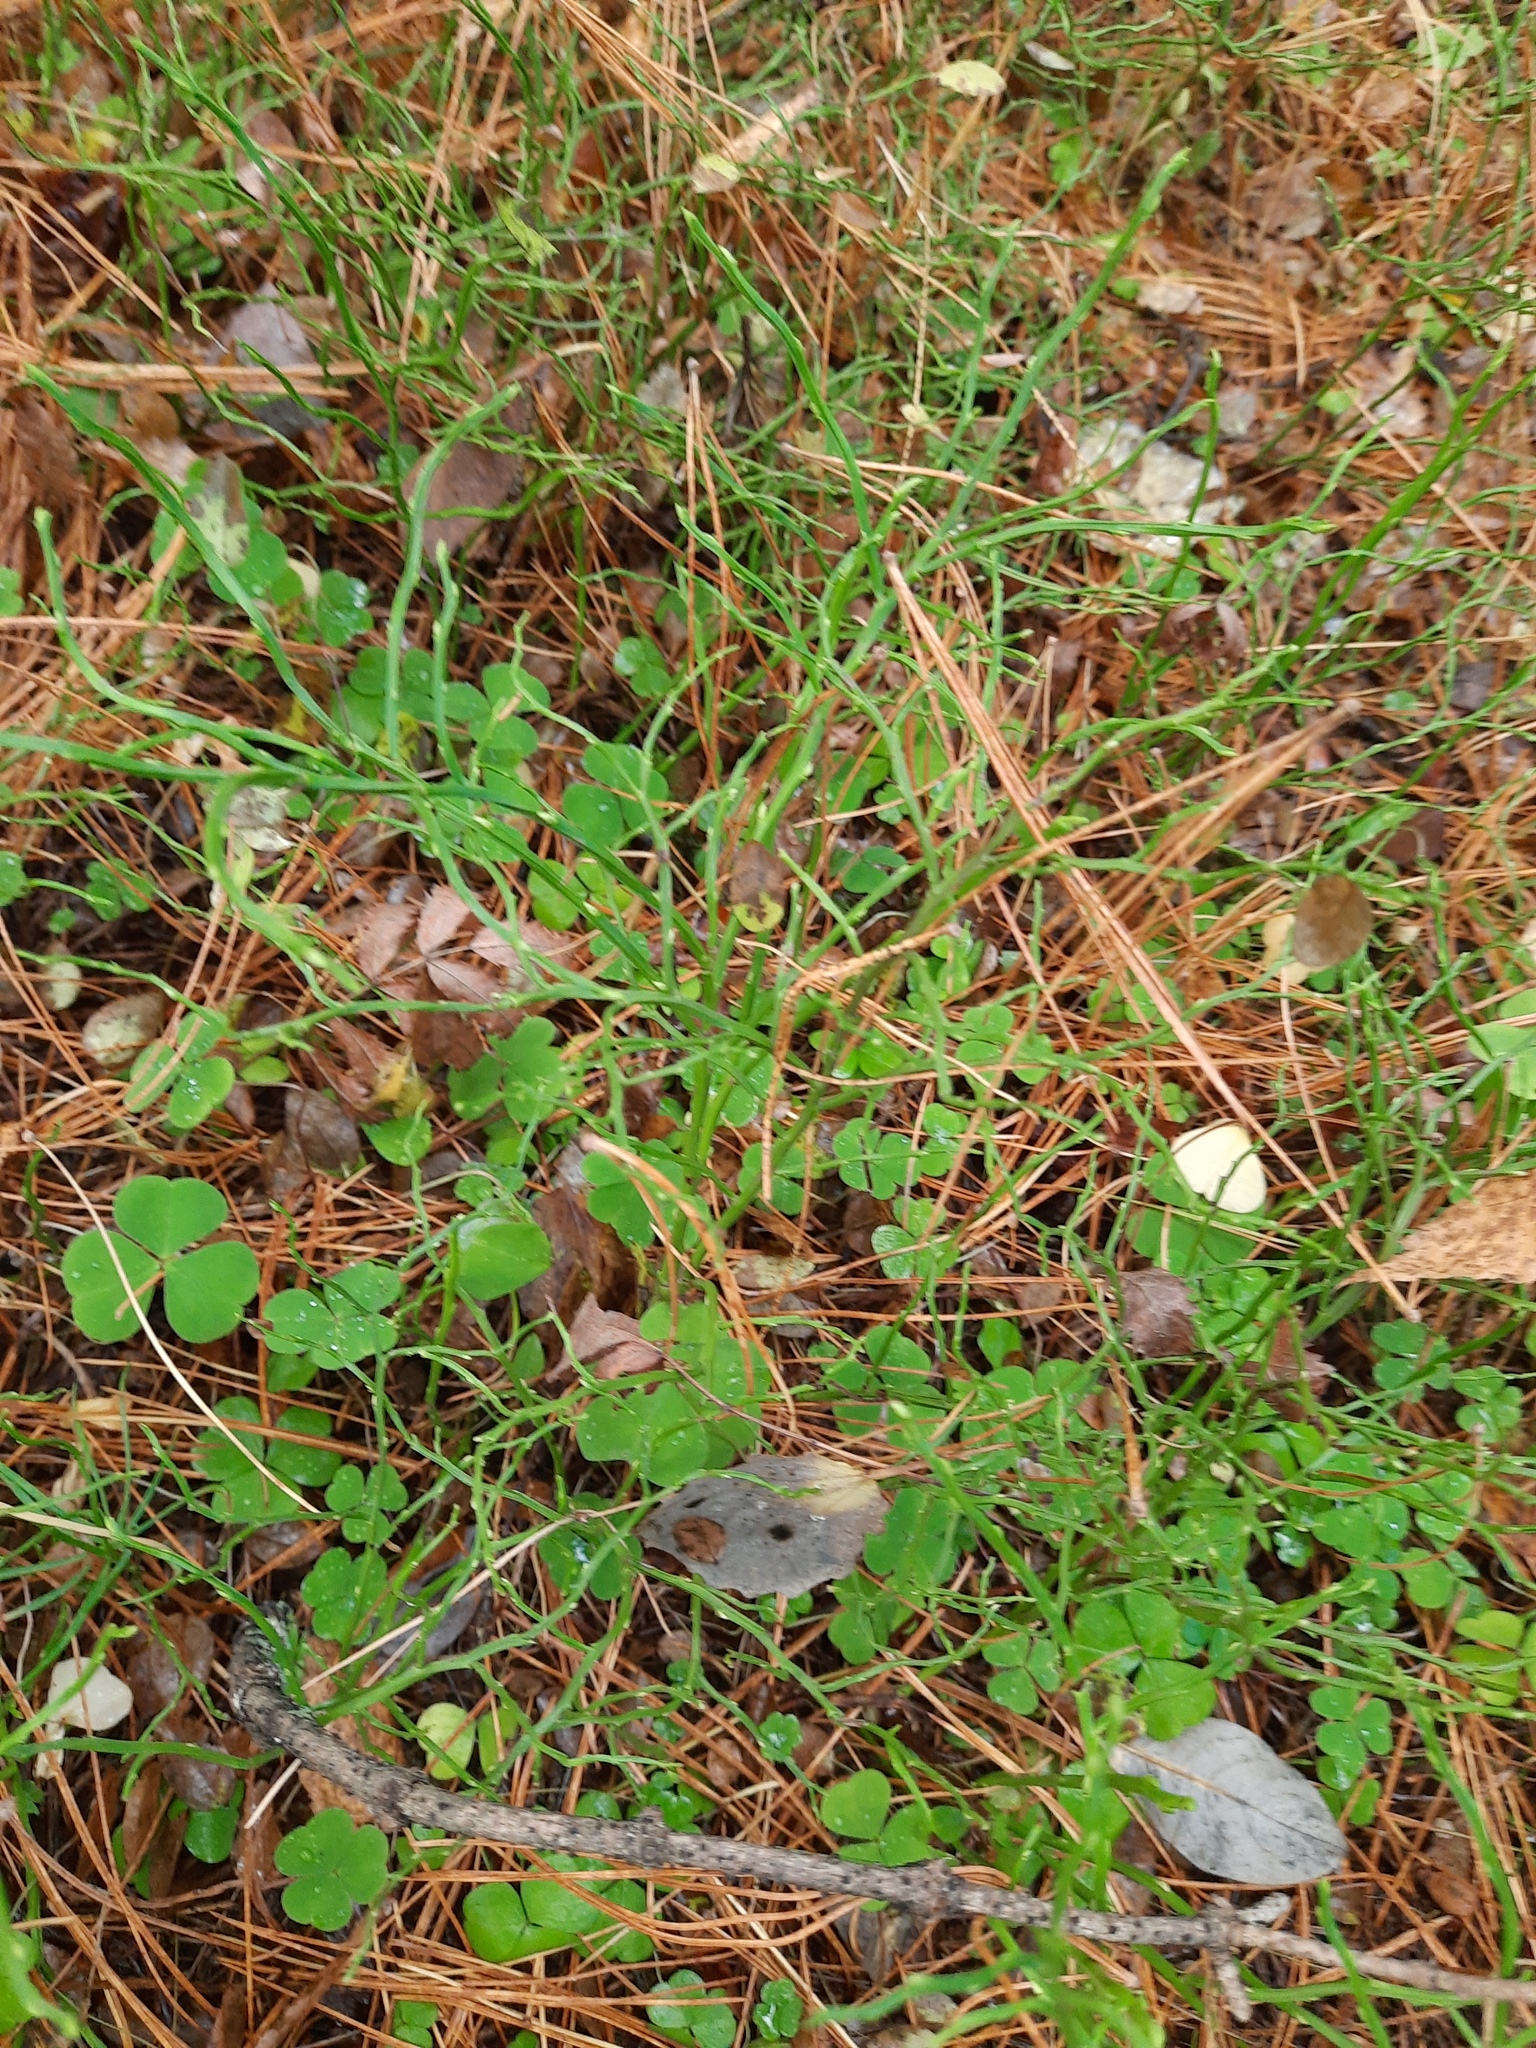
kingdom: Plantae
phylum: Tracheophyta
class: Magnoliopsida
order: Ericales
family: Ericaceae
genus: Vaccinium
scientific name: Vaccinium myrtillus
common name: Bilberry
